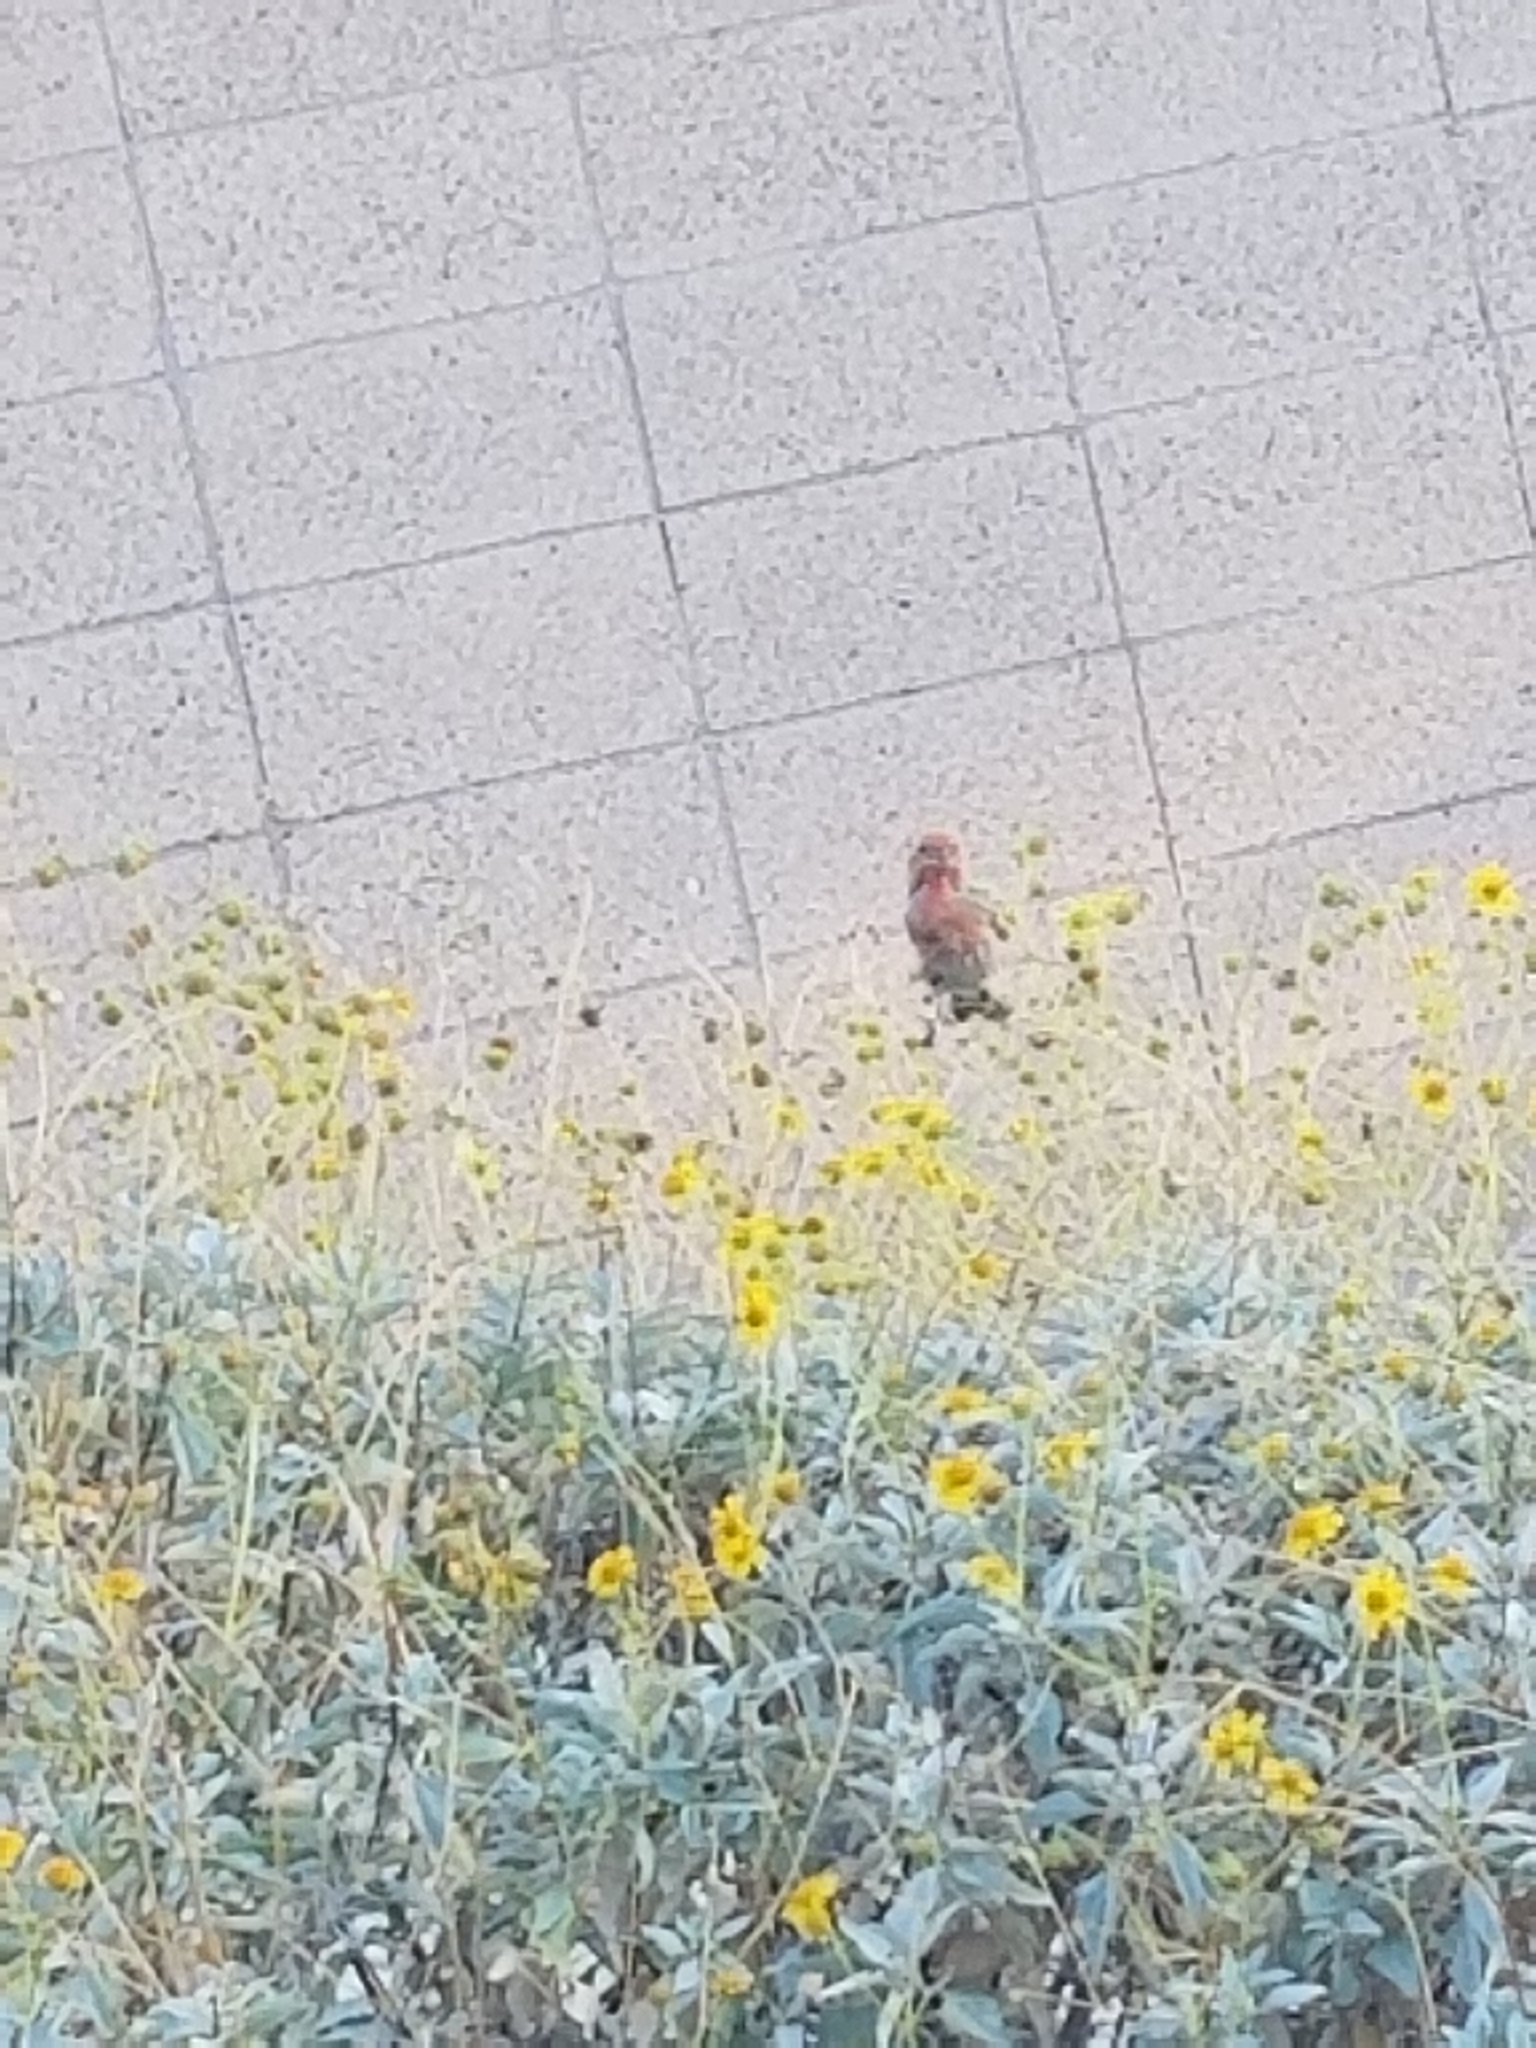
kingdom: Animalia
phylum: Chordata
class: Aves
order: Passeriformes
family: Fringillidae
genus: Haemorhous
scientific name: Haemorhous mexicanus
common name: House finch
